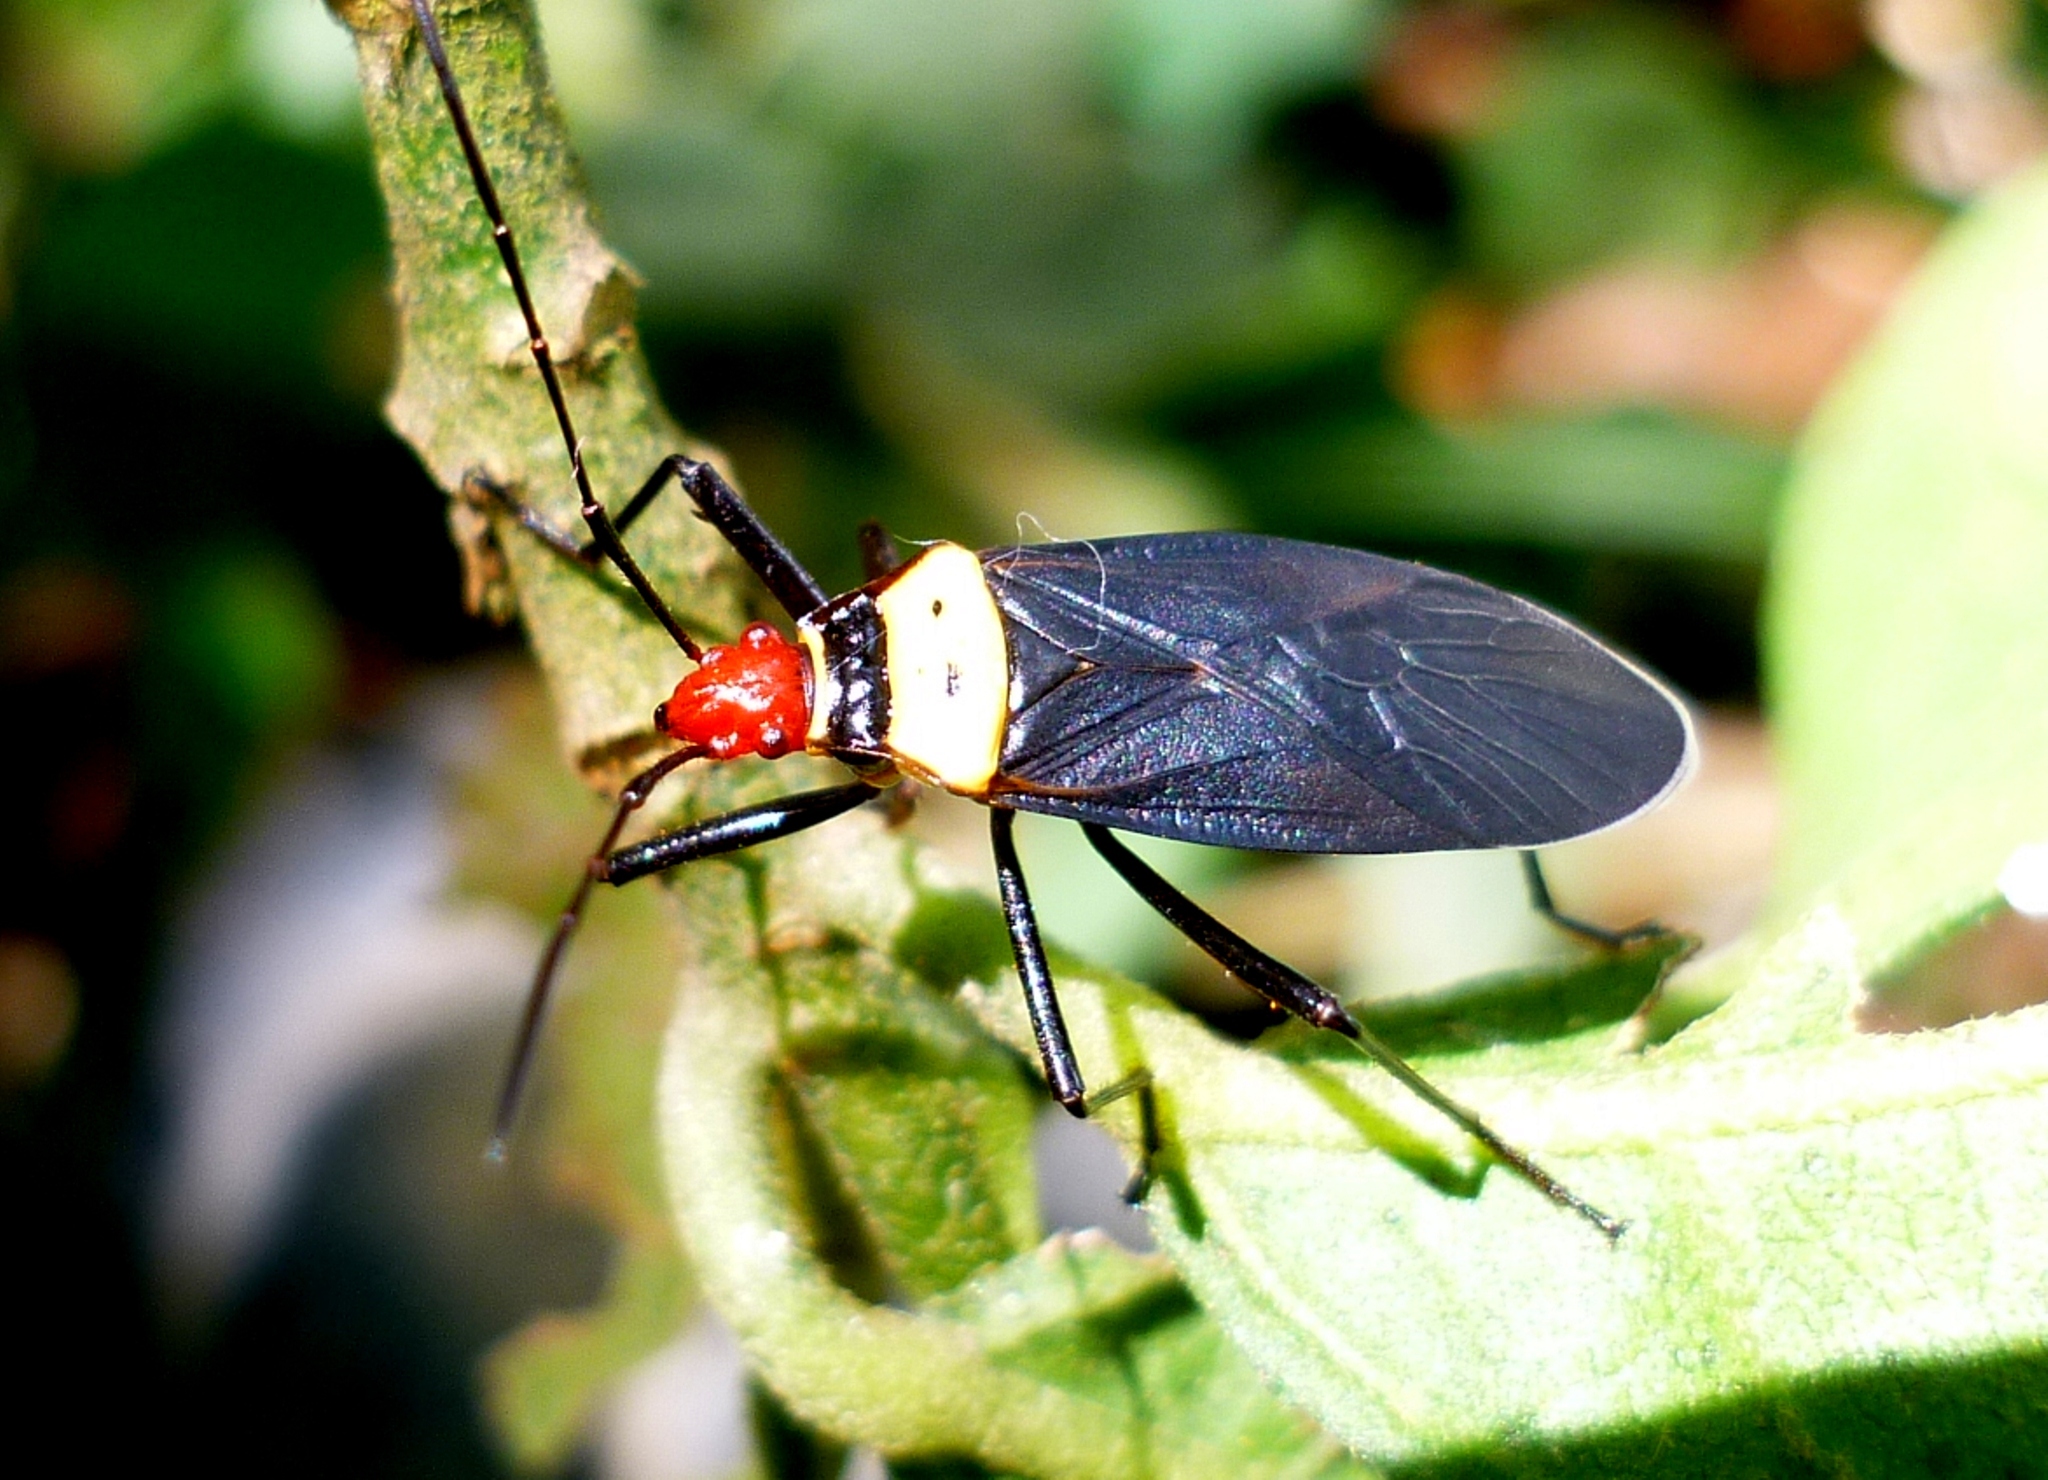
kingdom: Animalia
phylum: Arthropoda
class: Insecta
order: Hemiptera
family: Pyrrhocoridae
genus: Dysdercus
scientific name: Dysdercus
